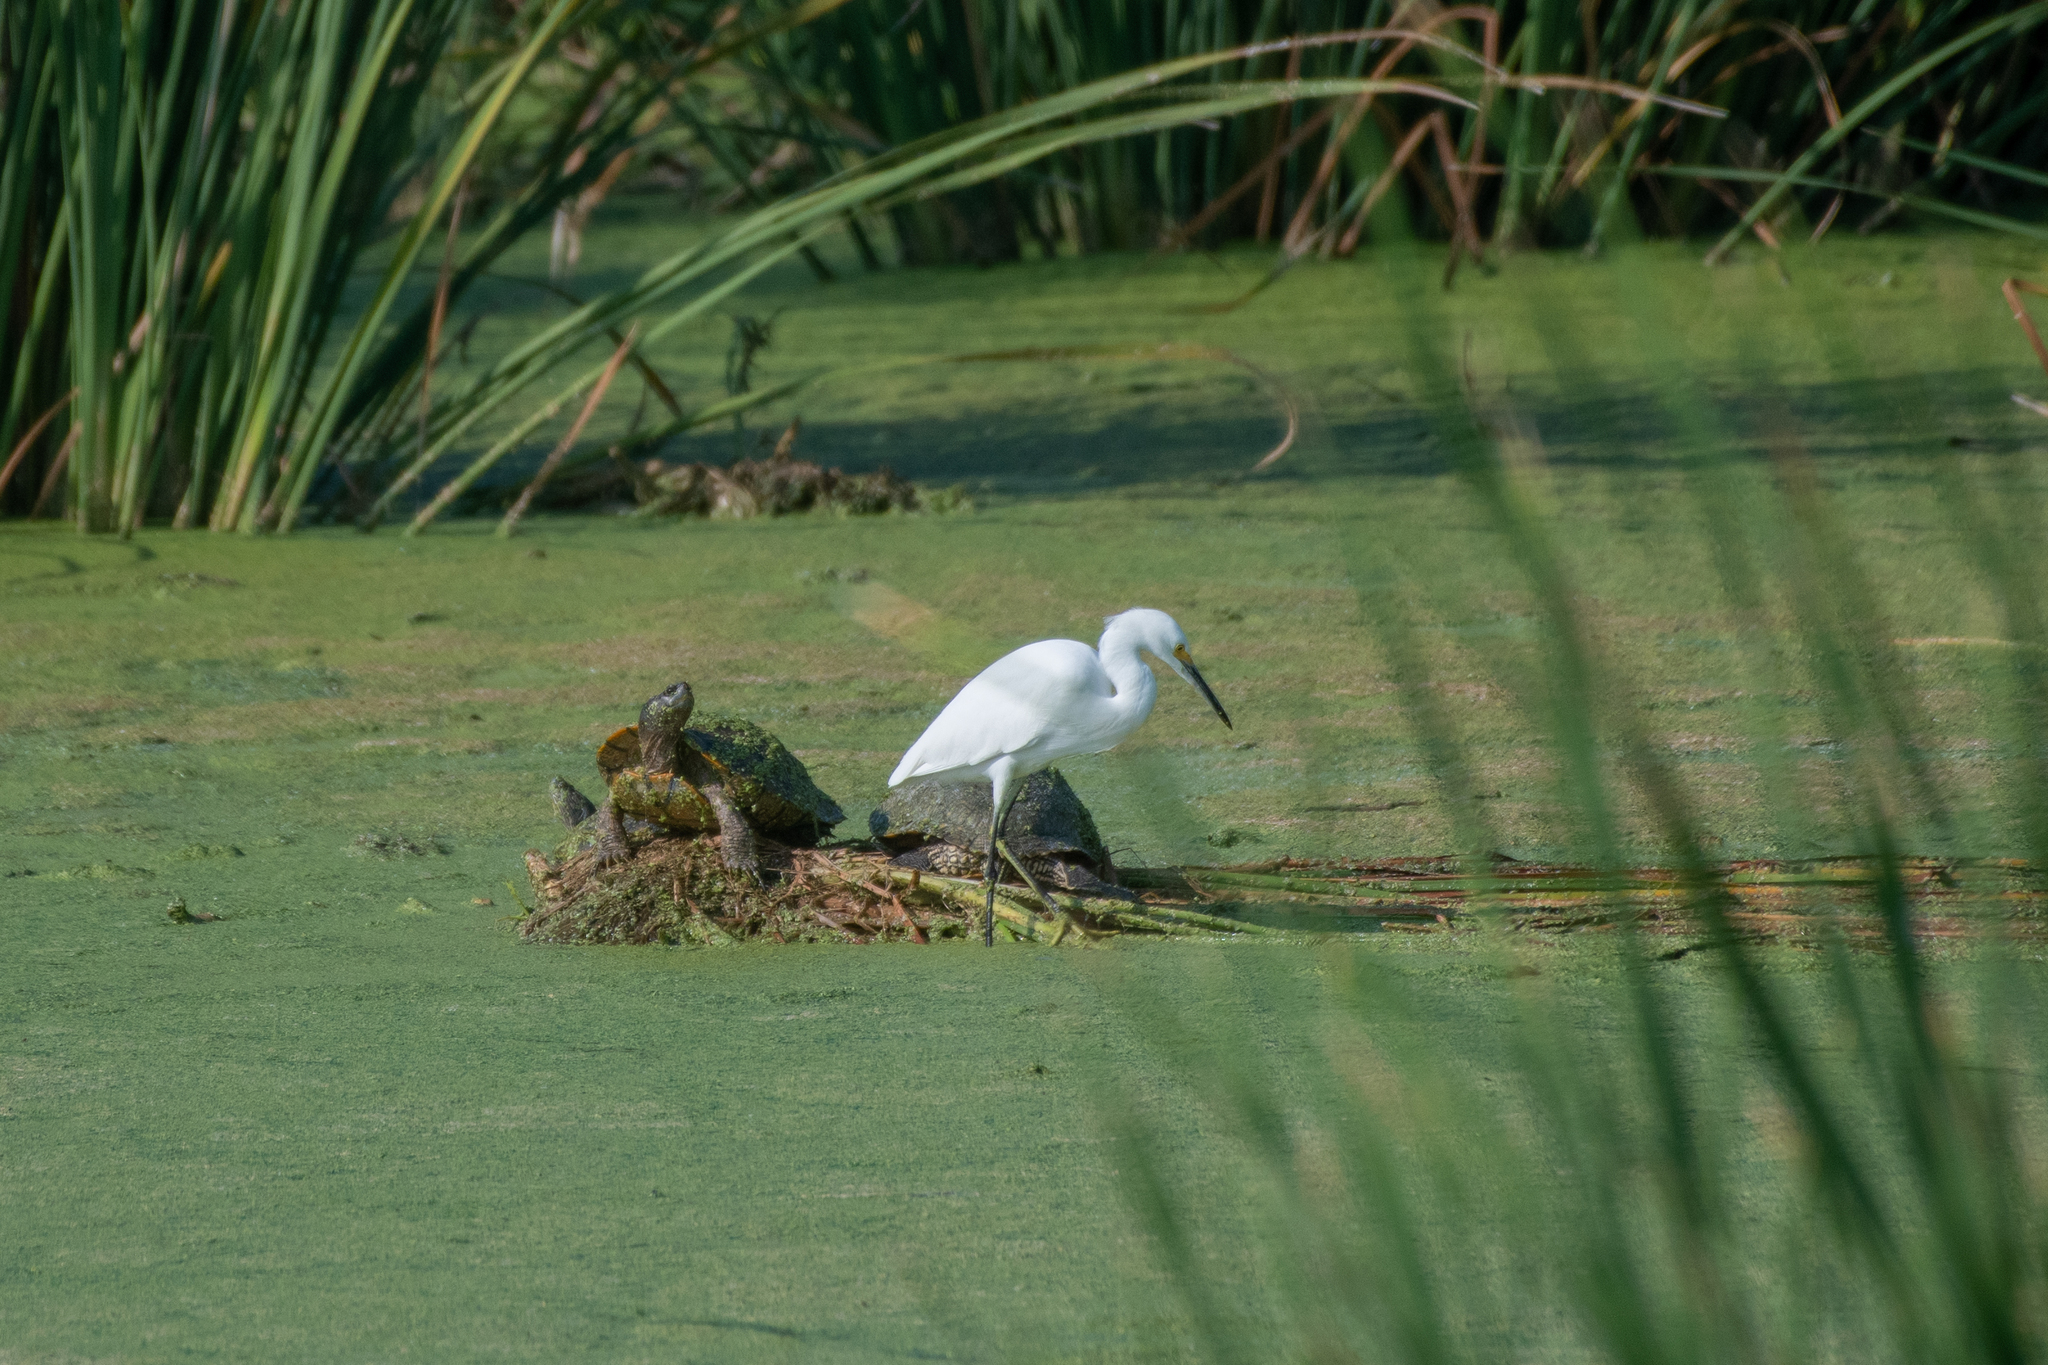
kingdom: Animalia
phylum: Chordata
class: Aves
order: Pelecaniformes
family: Ardeidae
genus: Egretta
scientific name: Egretta thula
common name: Snowy egret
